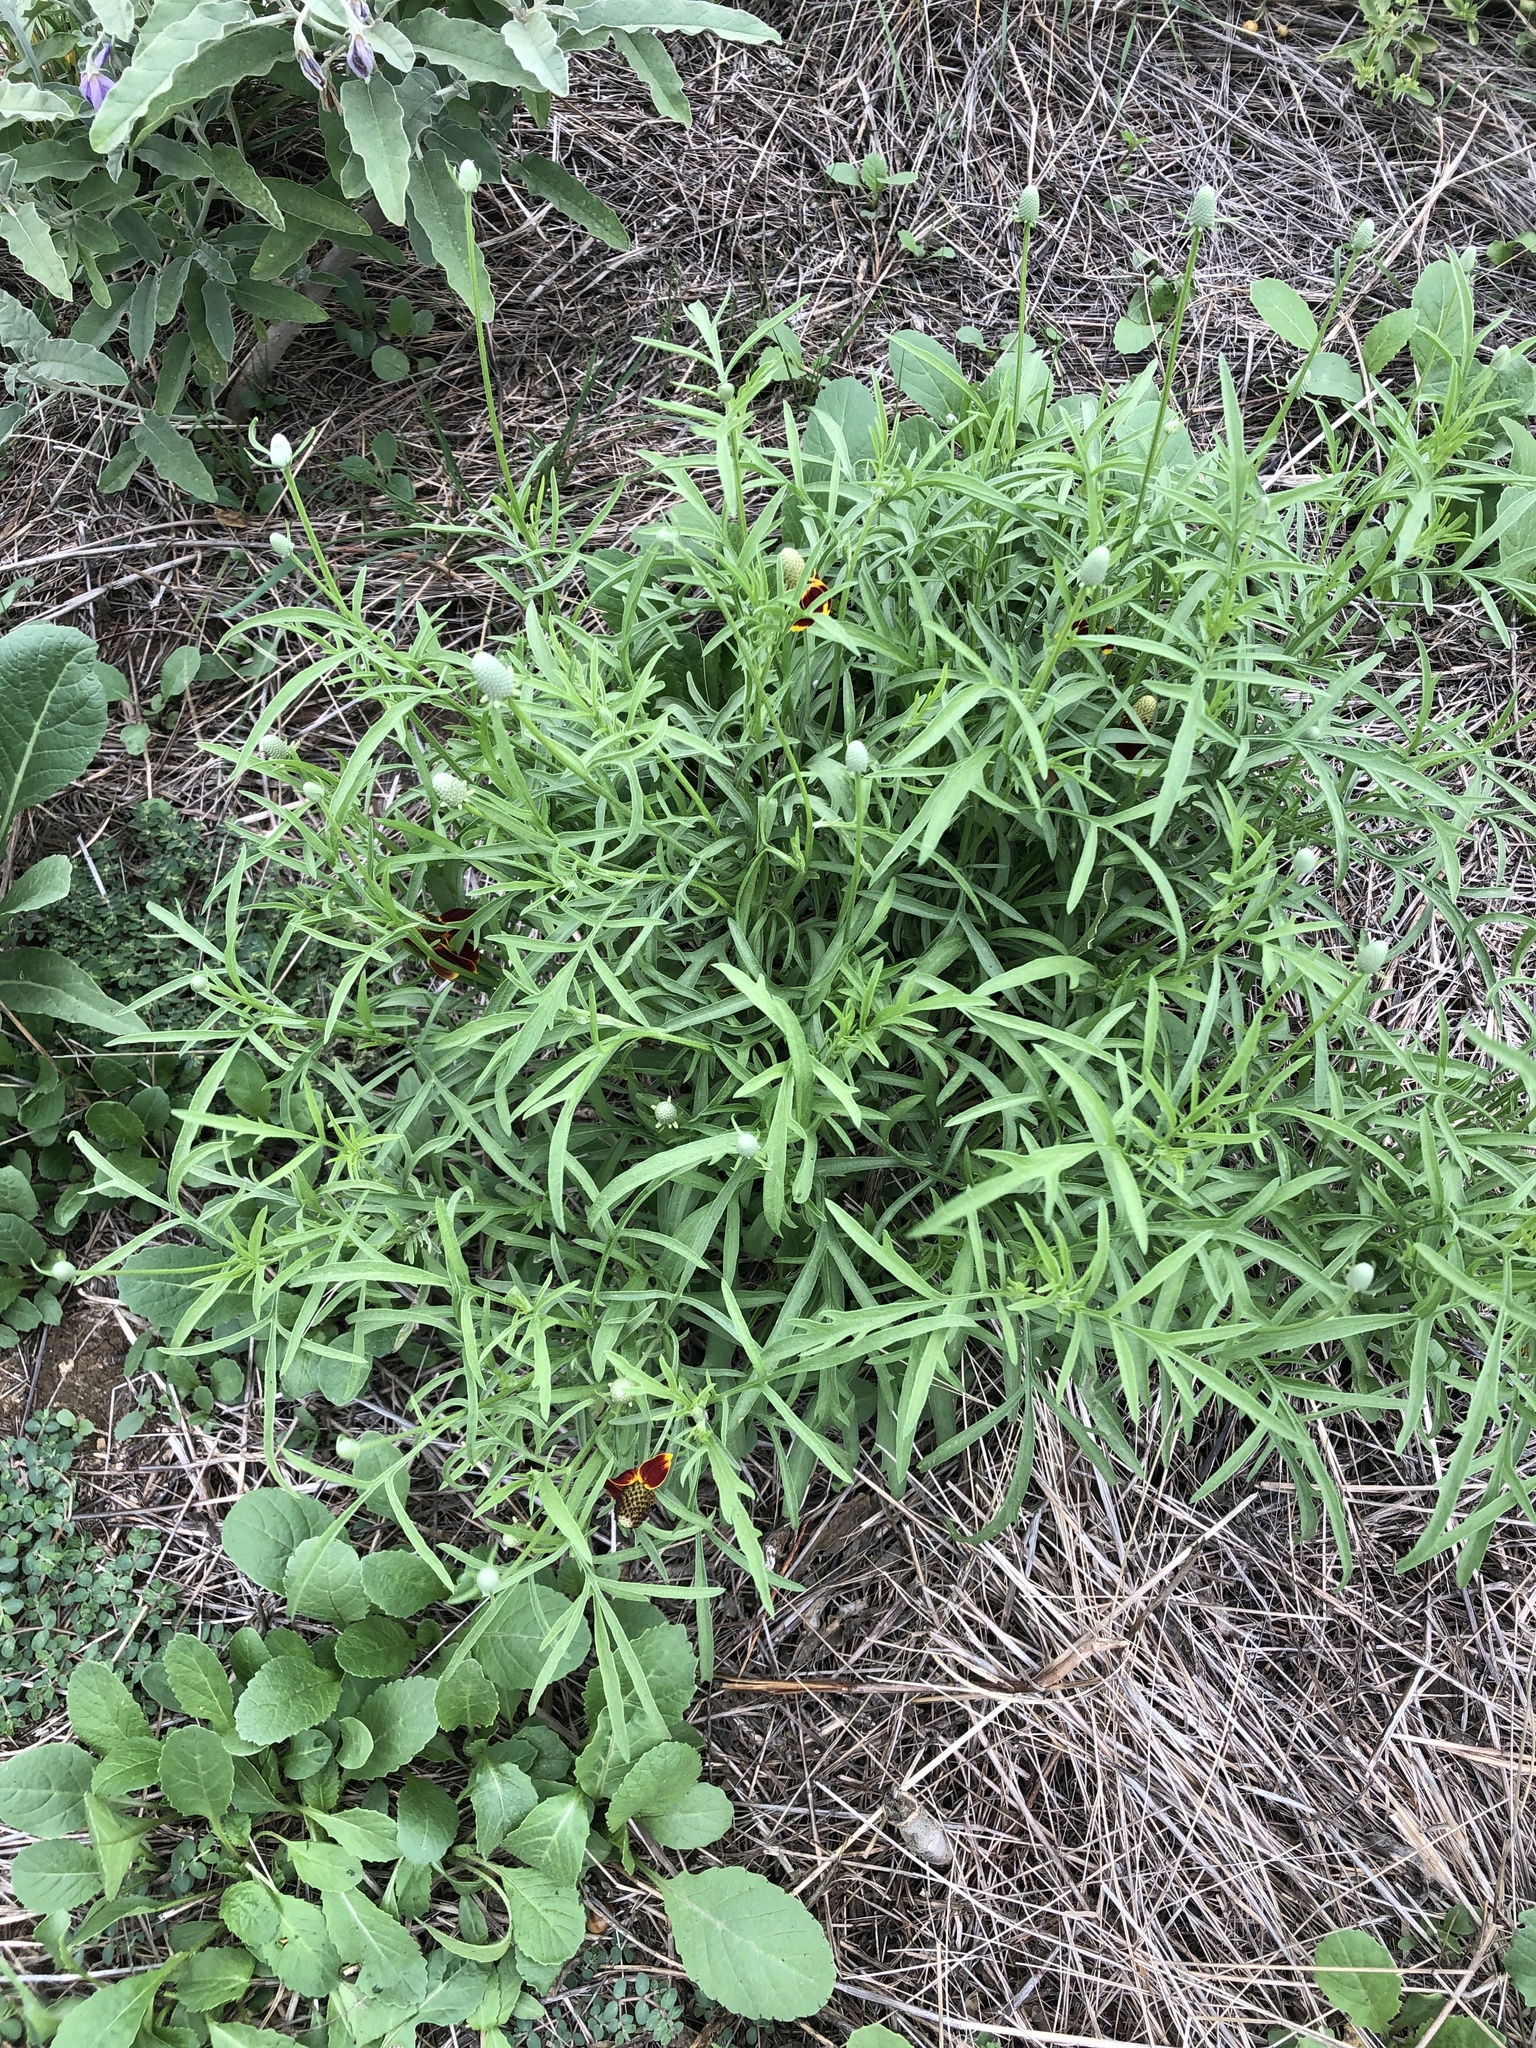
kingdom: Plantae
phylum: Tracheophyta
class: Magnoliopsida
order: Asterales
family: Asteraceae
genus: Ratibida
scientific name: Ratibida columnifera
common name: Prairie coneflower
